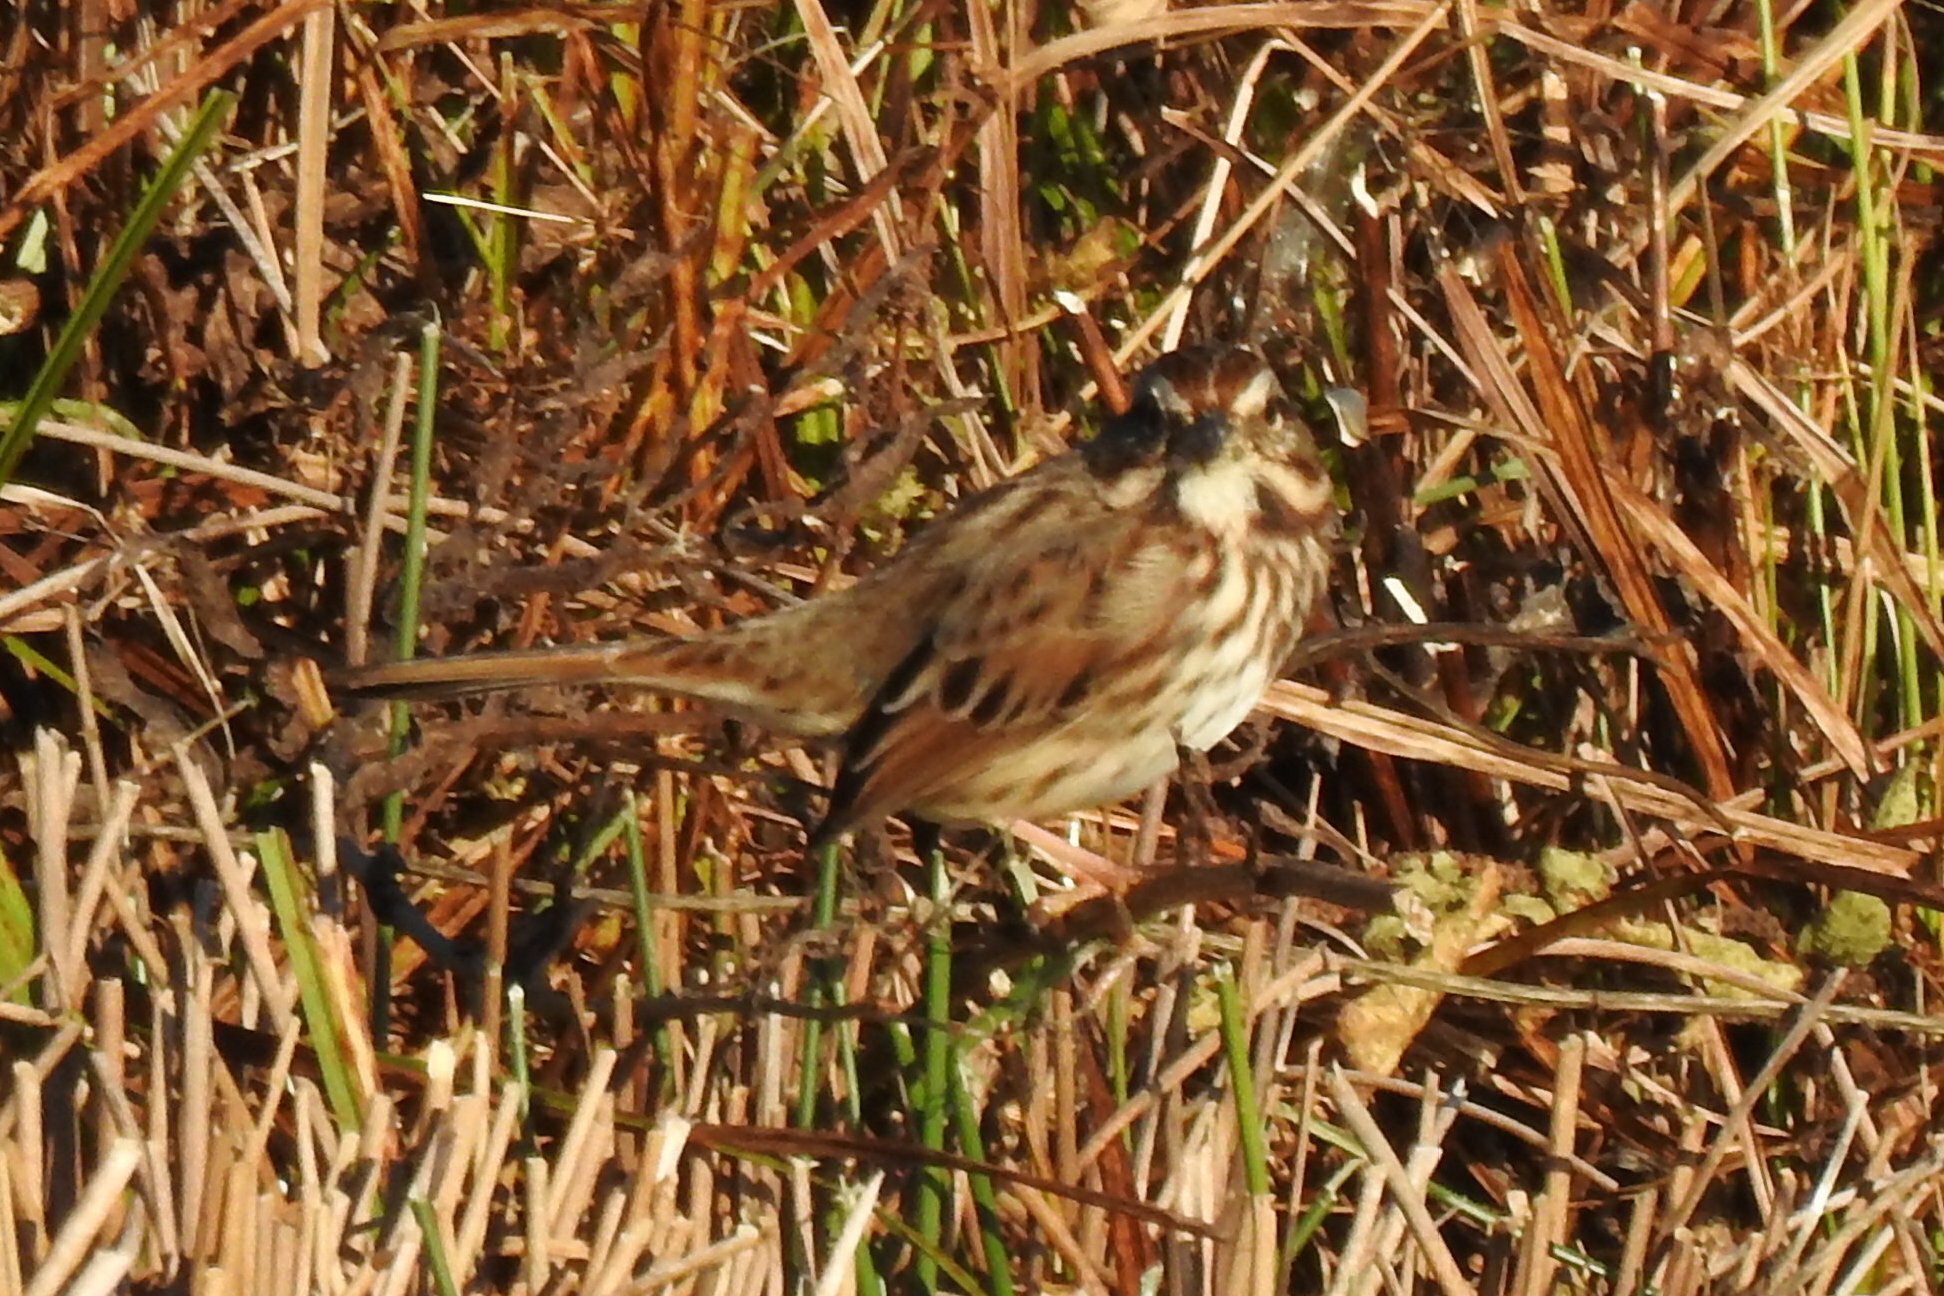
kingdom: Animalia
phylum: Chordata
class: Aves
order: Passeriformes
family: Passerellidae
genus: Melospiza
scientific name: Melospiza melodia
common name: Song sparrow
